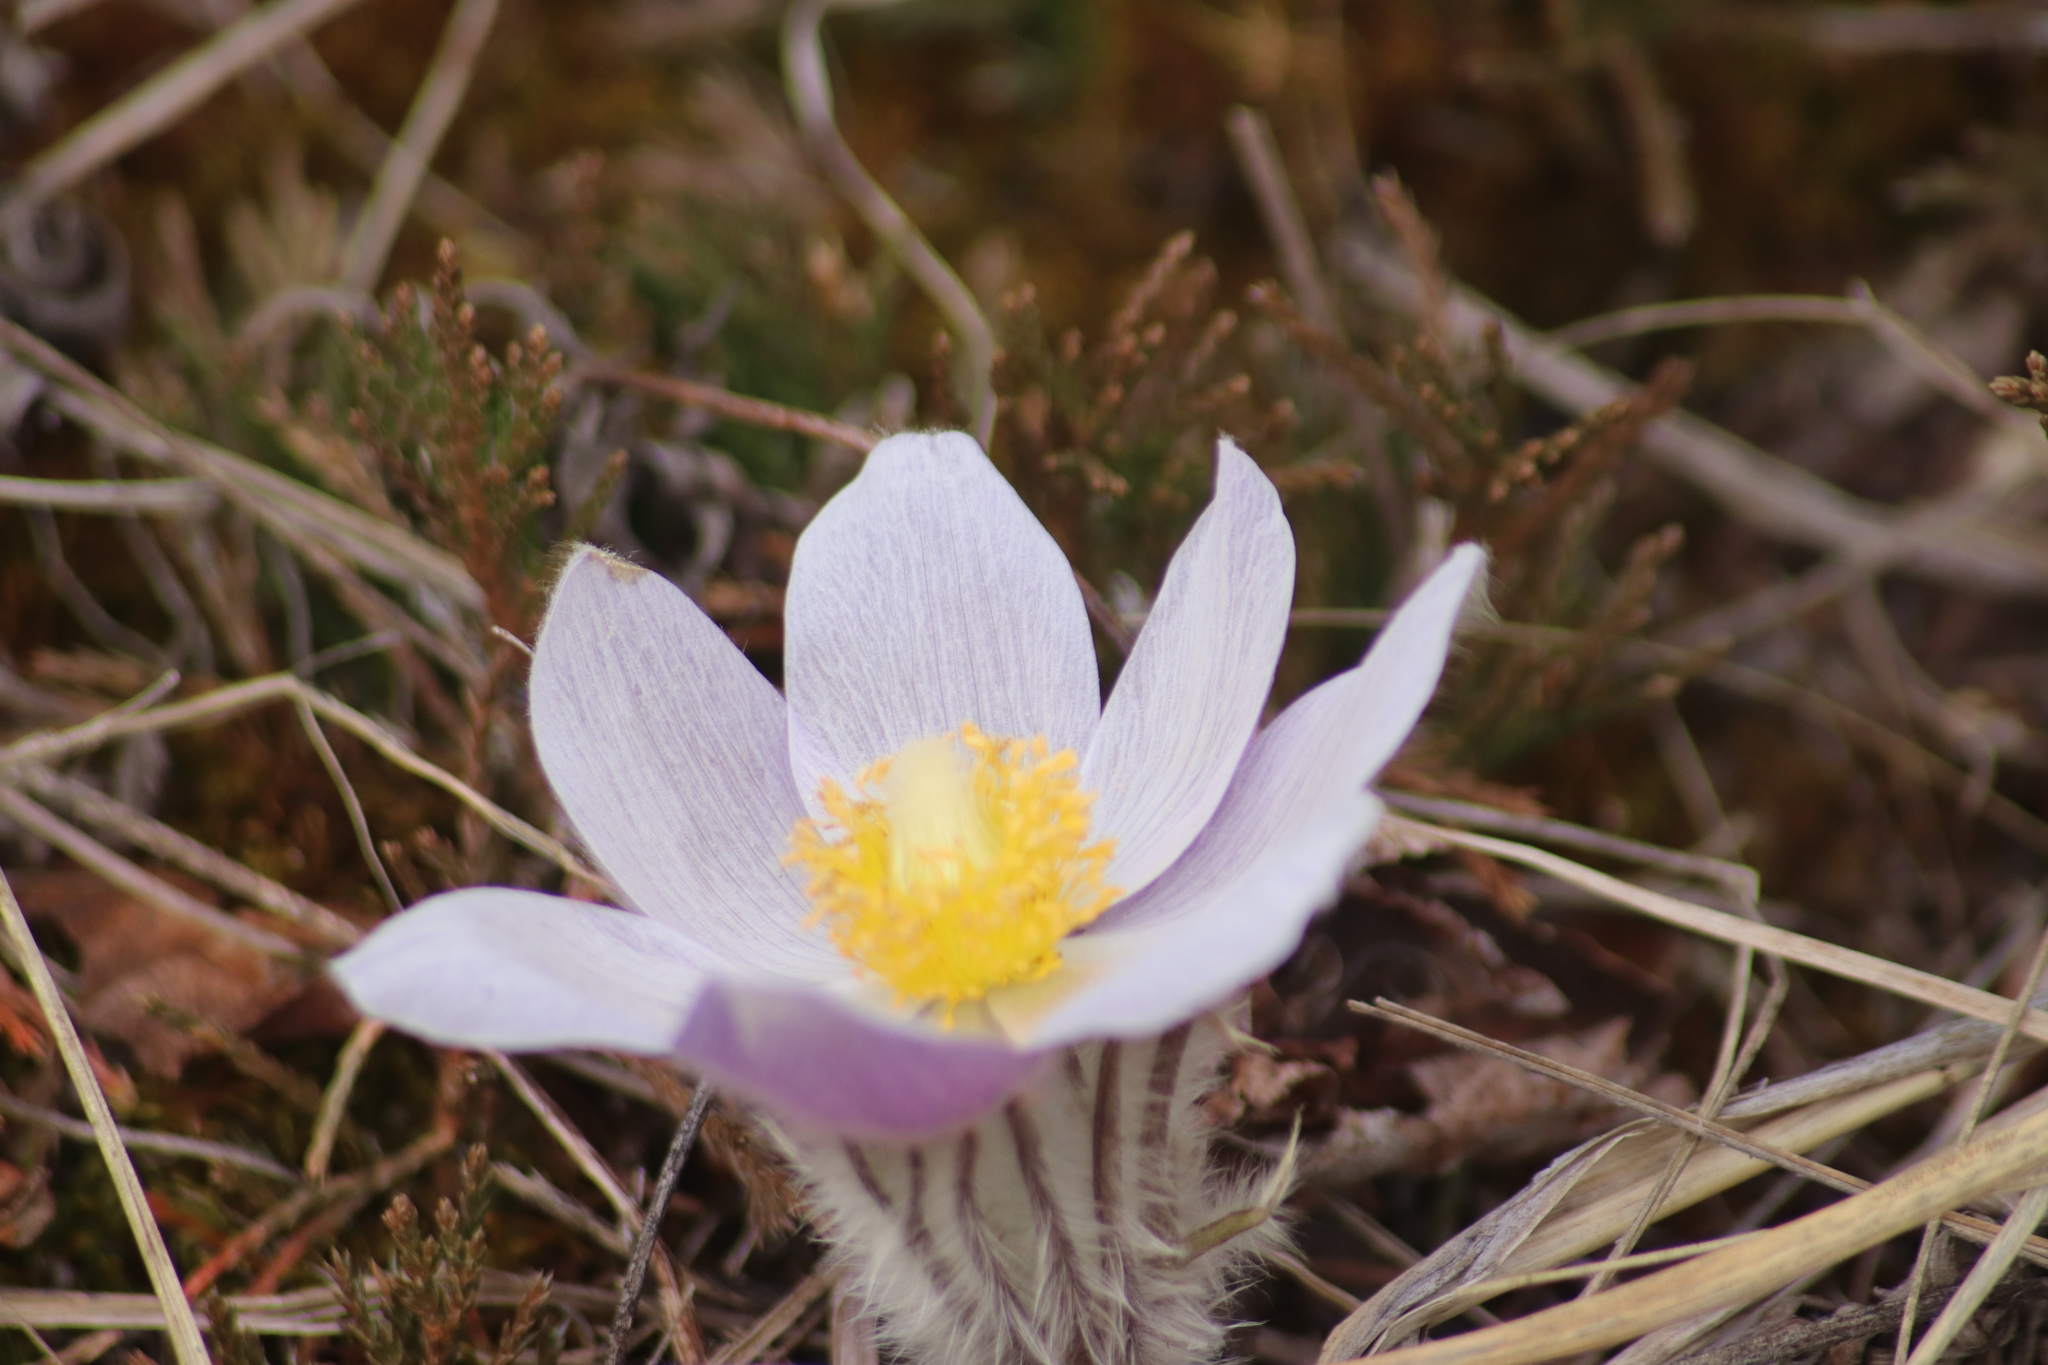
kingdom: Plantae
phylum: Tracheophyta
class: Magnoliopsida
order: Ranunculales
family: Ranunculaceae
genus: Pulsatilla
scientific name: Pulsatilla nuttalliana
